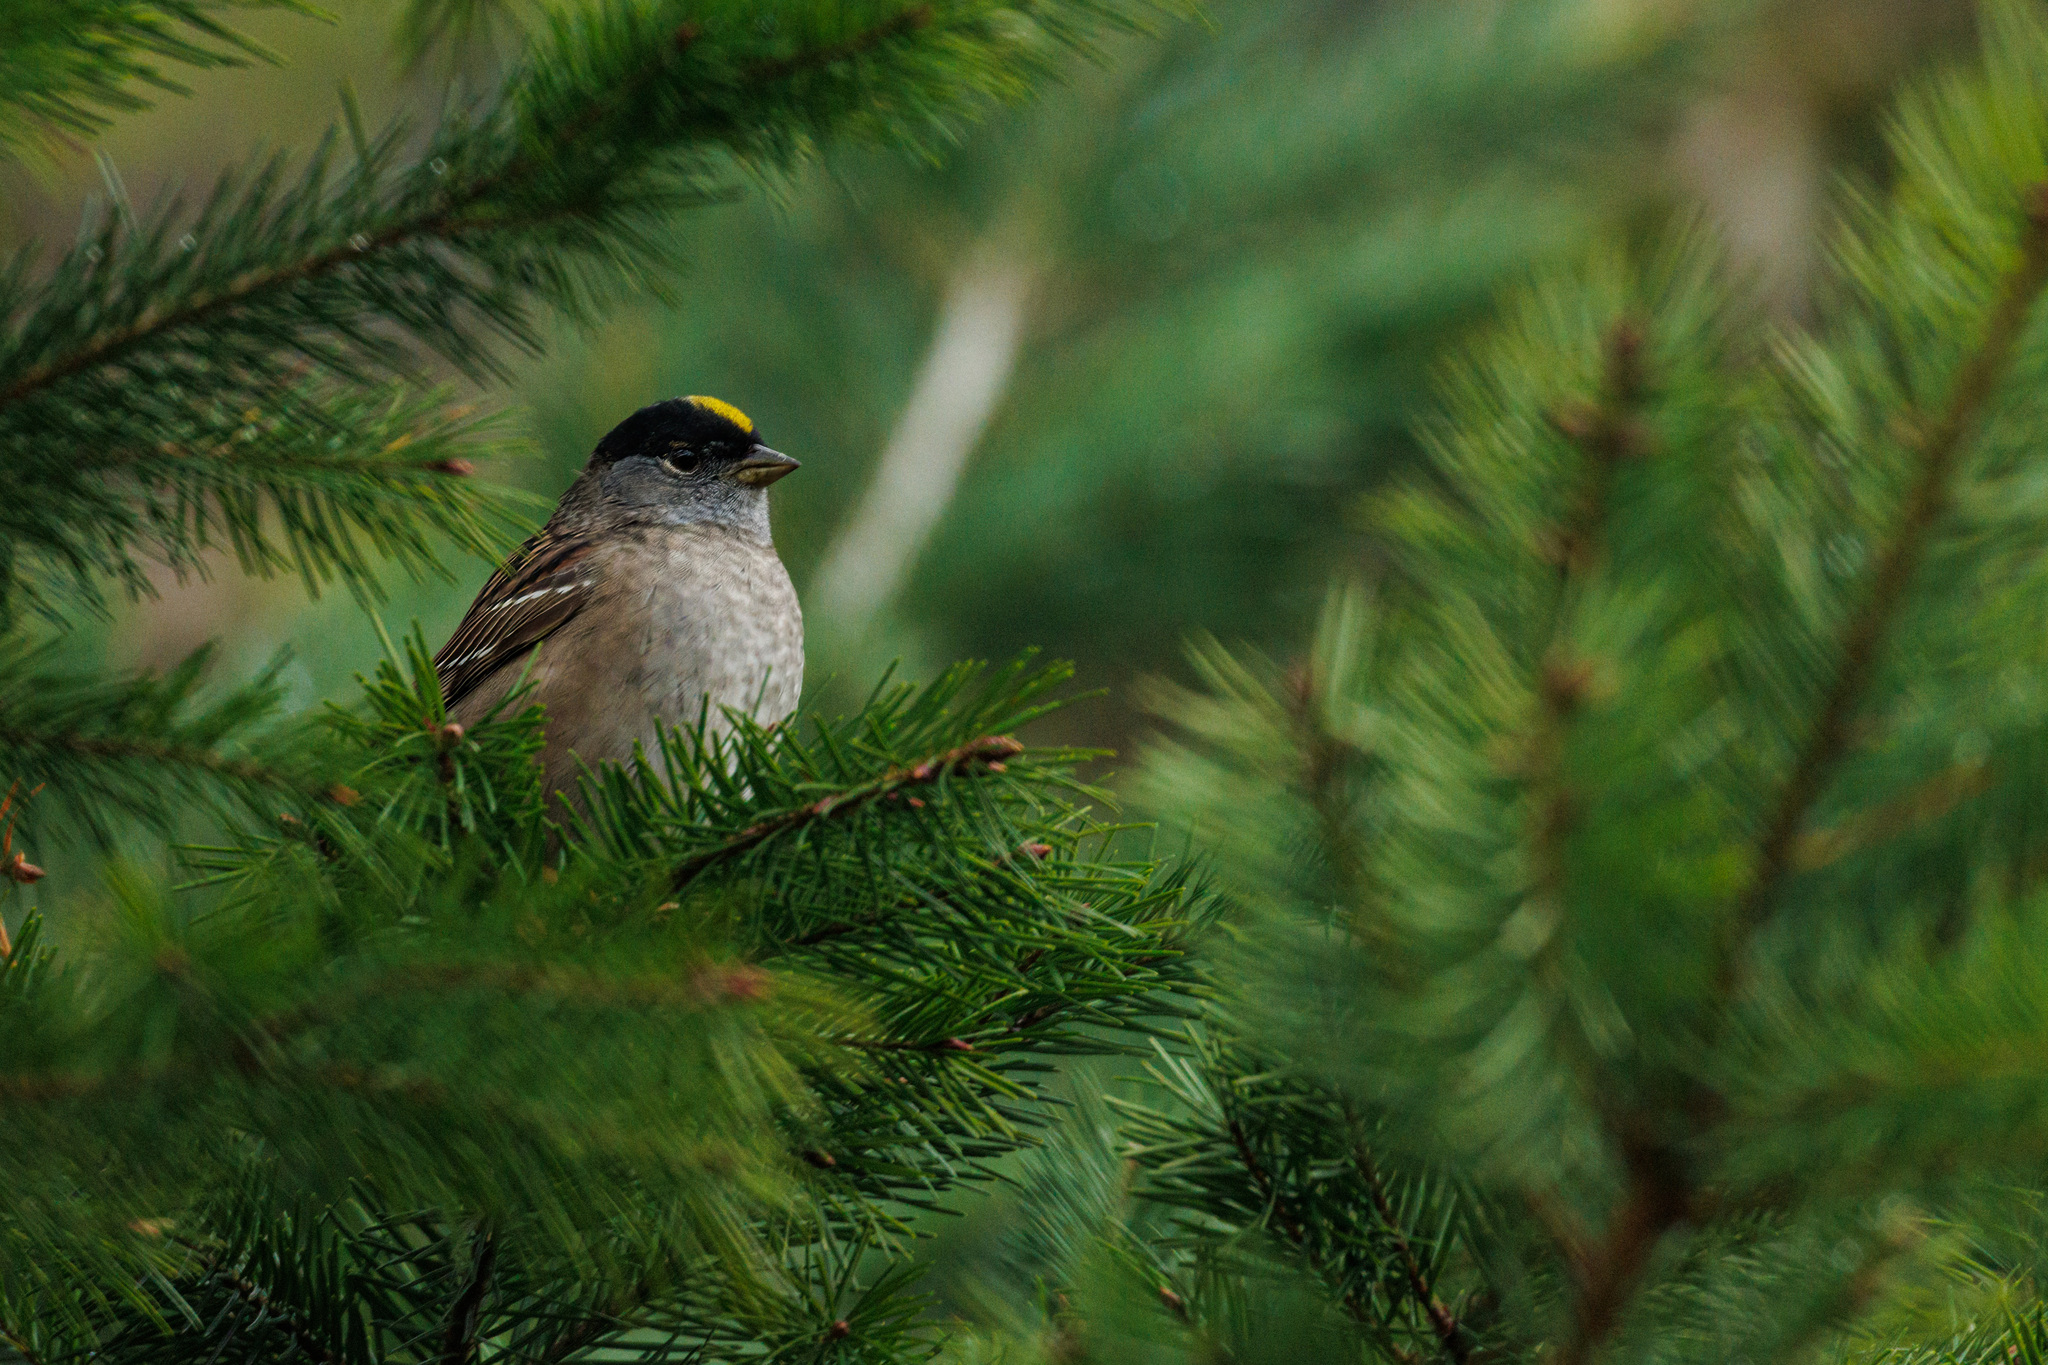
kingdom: Animalia
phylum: Chordata
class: Aves
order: Passeriformes
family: Passerellidae
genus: Zonotrichia
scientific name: Zonotrichia atricapilla
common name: Golden-crowned sparrow
